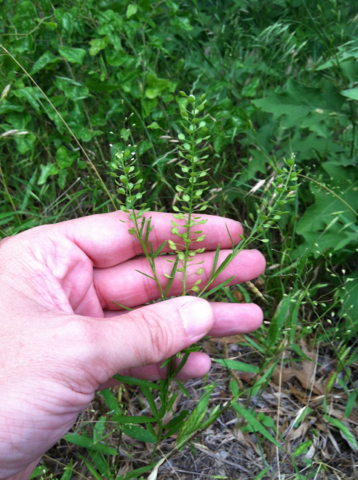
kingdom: Plantae
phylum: Tracheophyta
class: Magnoliopsida
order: Brassicales
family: Brassicaceae
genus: Lepidium
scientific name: Lepidium virginicum
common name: Least pepperwort
